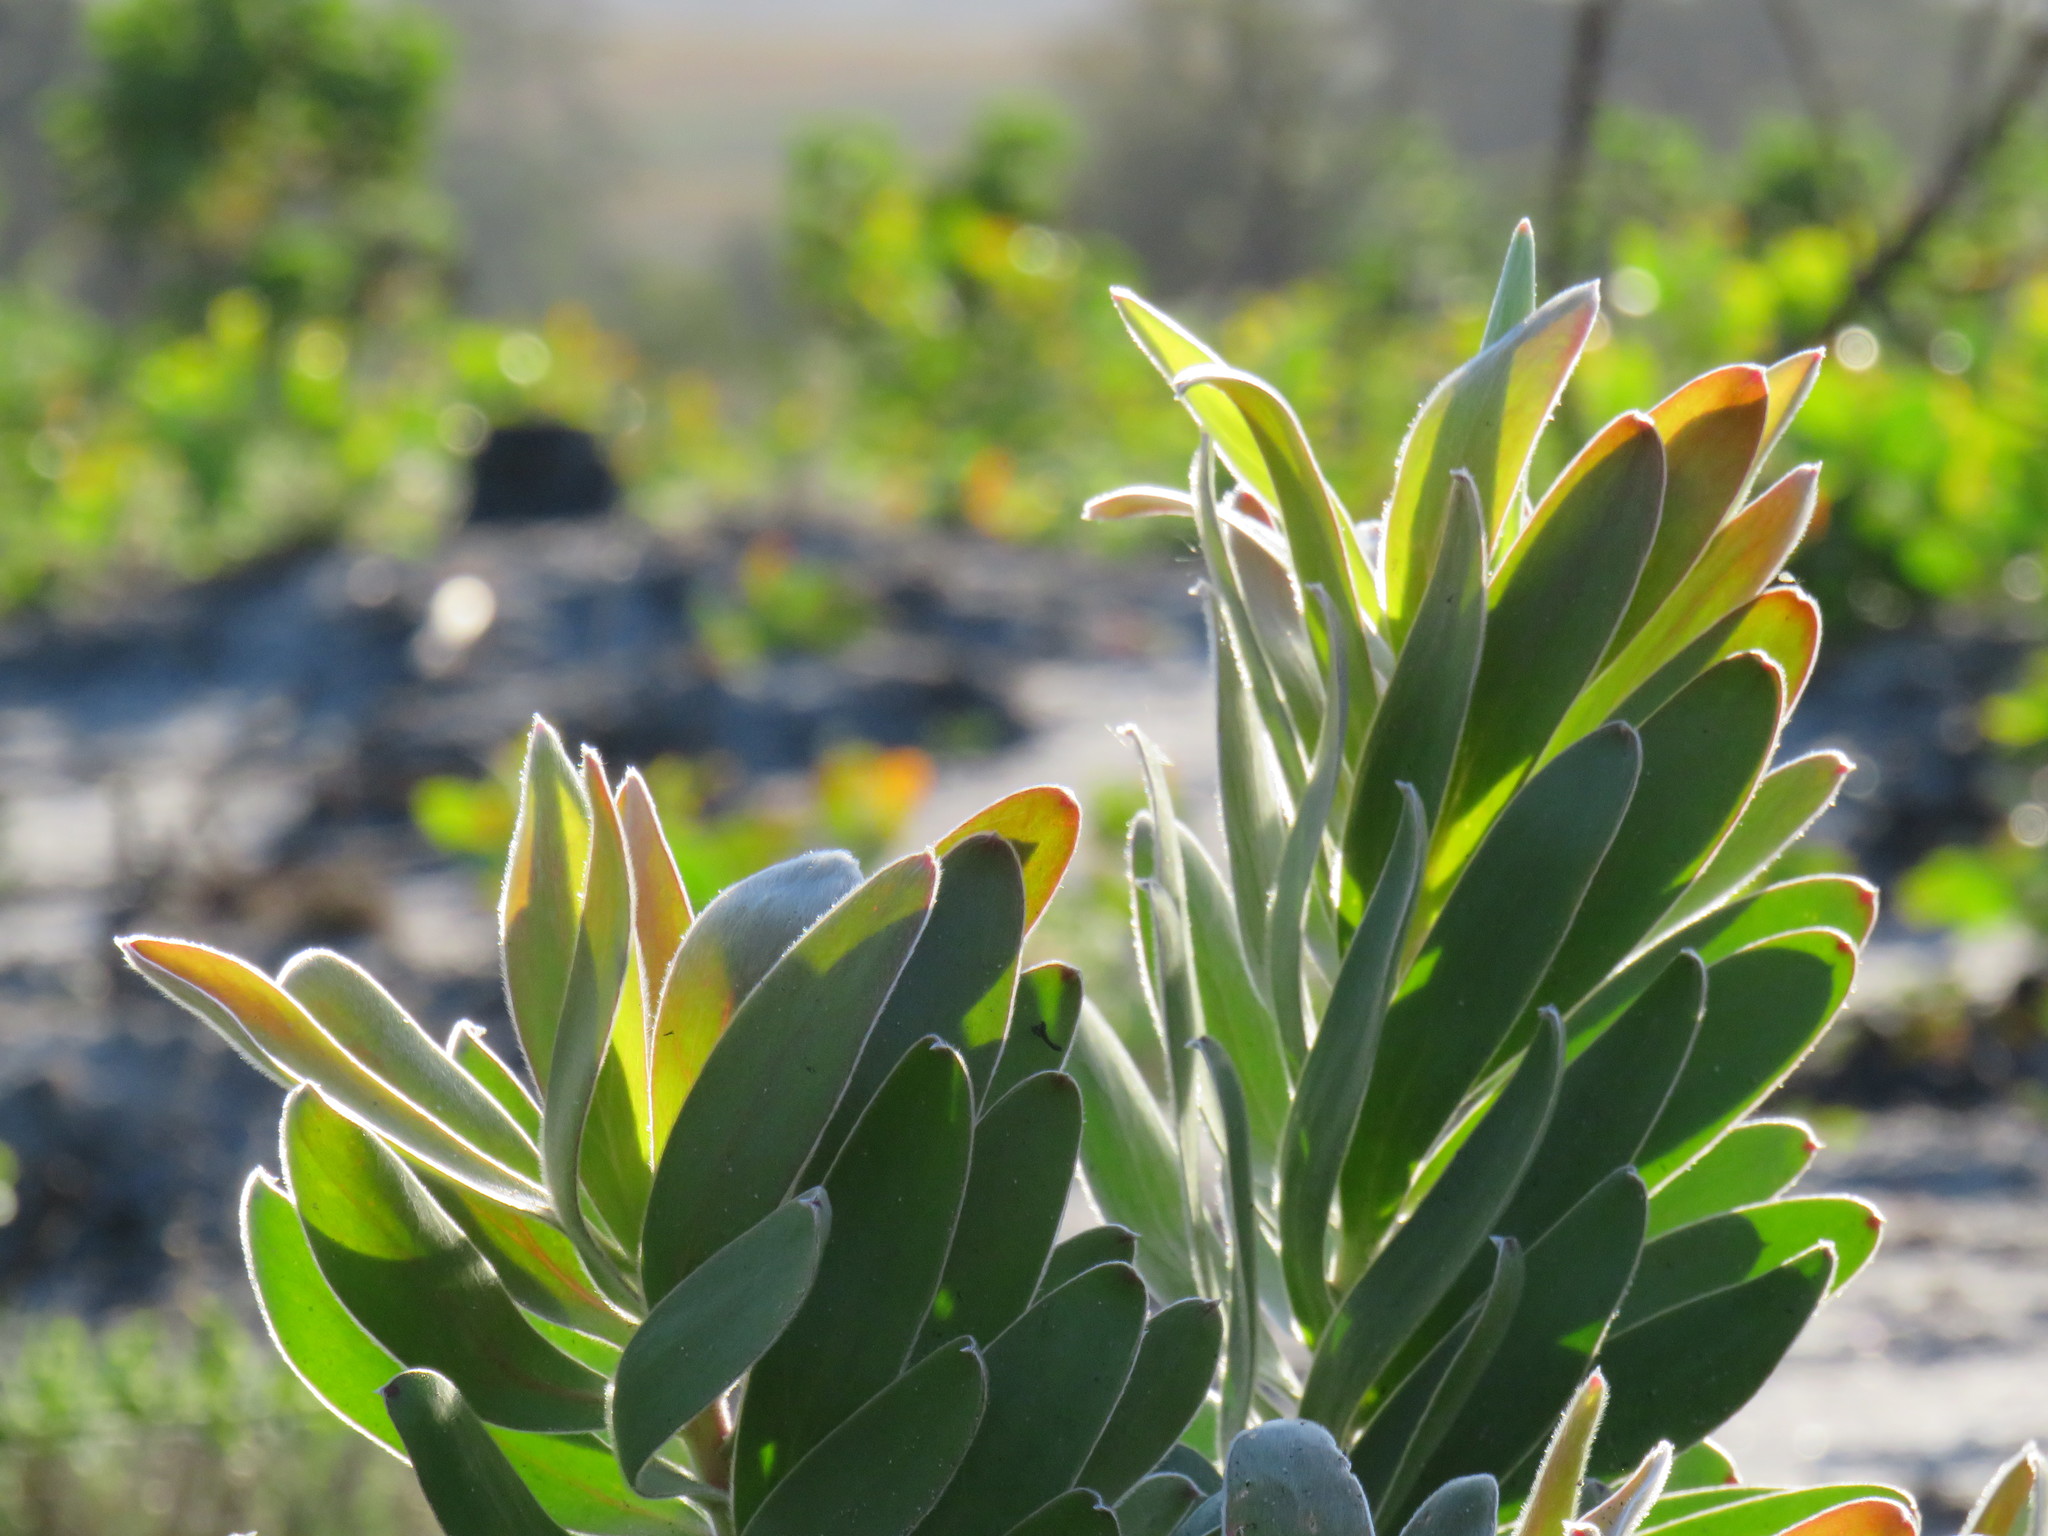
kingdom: Plantae
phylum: Tracheophyta
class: Magnoliopsida
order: Proteales
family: Proteaceae
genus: Leucadendron
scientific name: Leucadendron laureolum
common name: Golden sunshinebush
